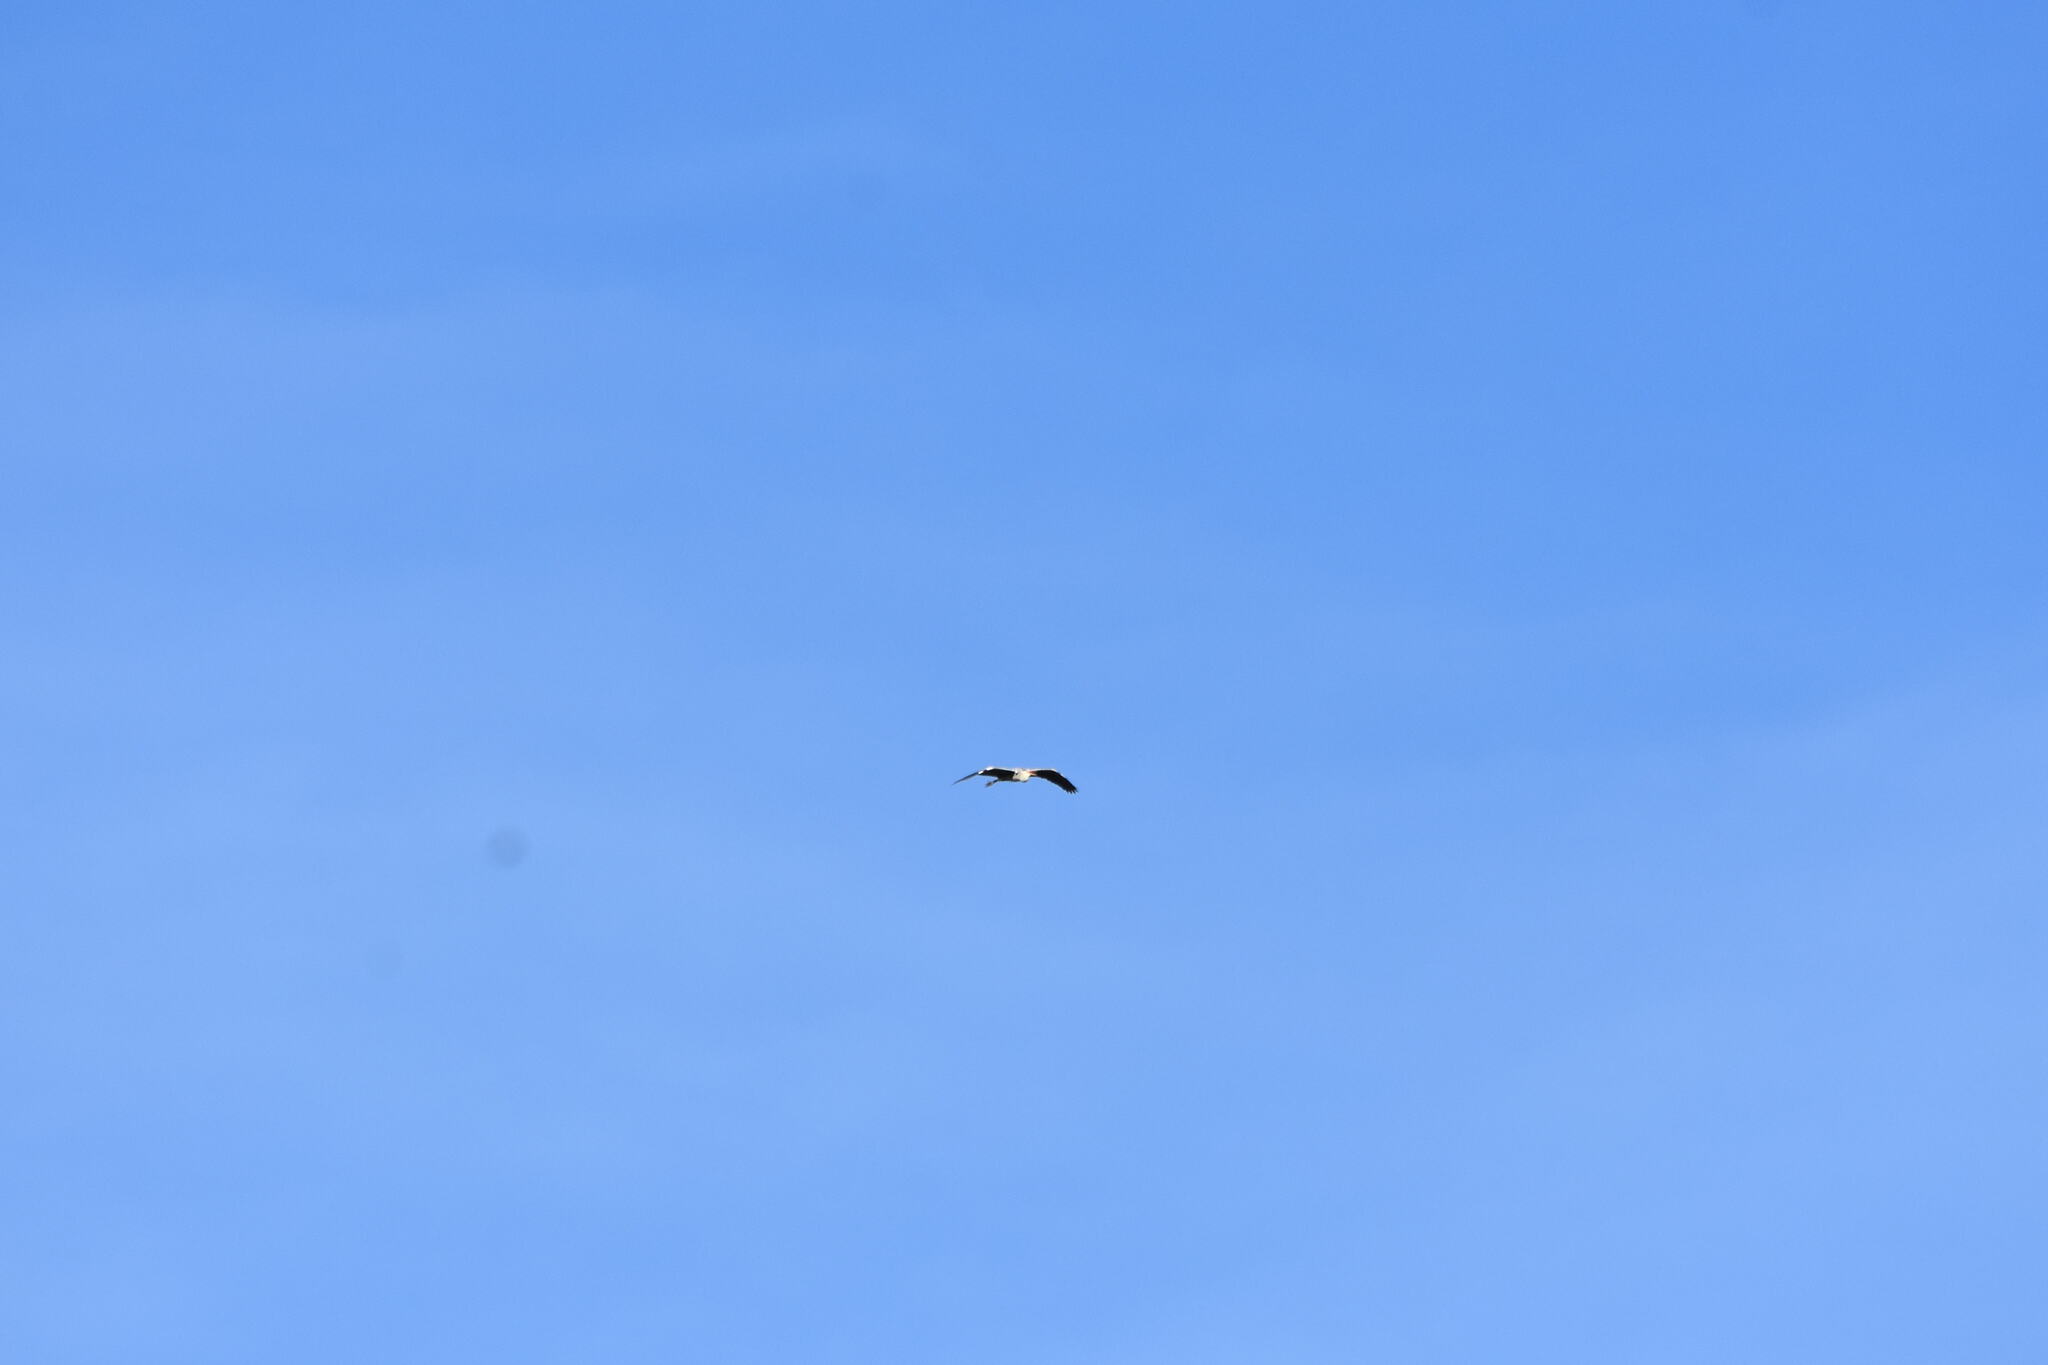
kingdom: Animalia
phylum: Chordata
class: Aves
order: Pelecaniformes
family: Ardeidae
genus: Ardea
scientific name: Ardea cinerea
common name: Grey heron
